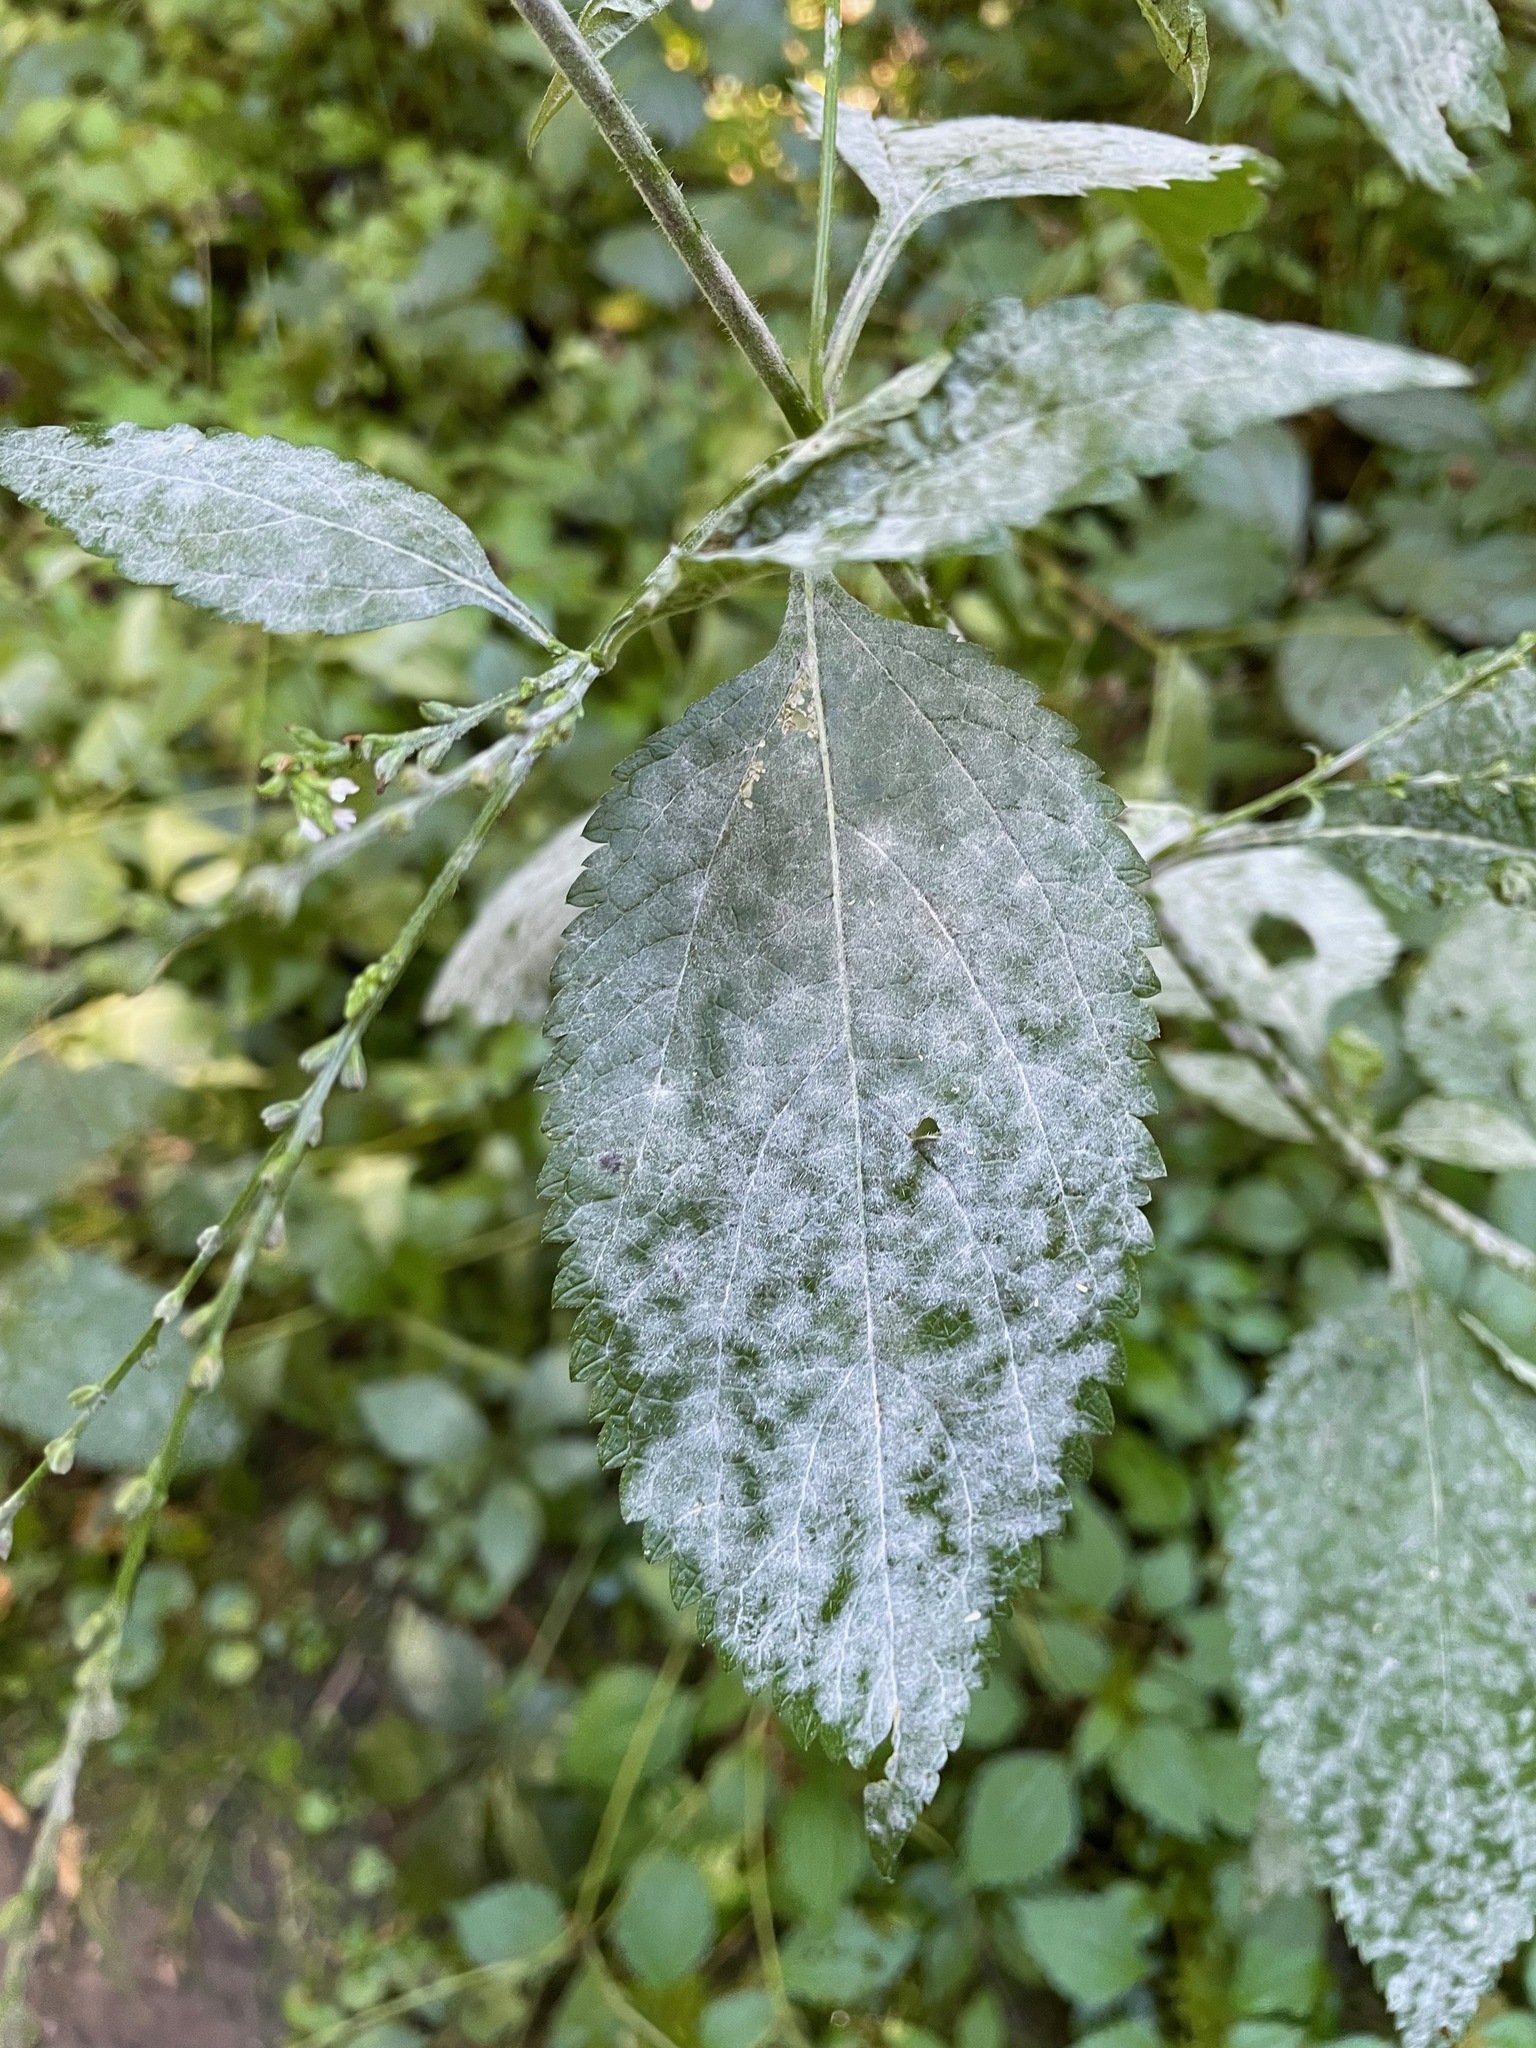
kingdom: Plantae
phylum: Tracheophyta
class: Magnoliopsida
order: Lamiales
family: Verbenaceae
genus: Verbena
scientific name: Verbena urticifolia
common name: Nettle-leaved vervain
